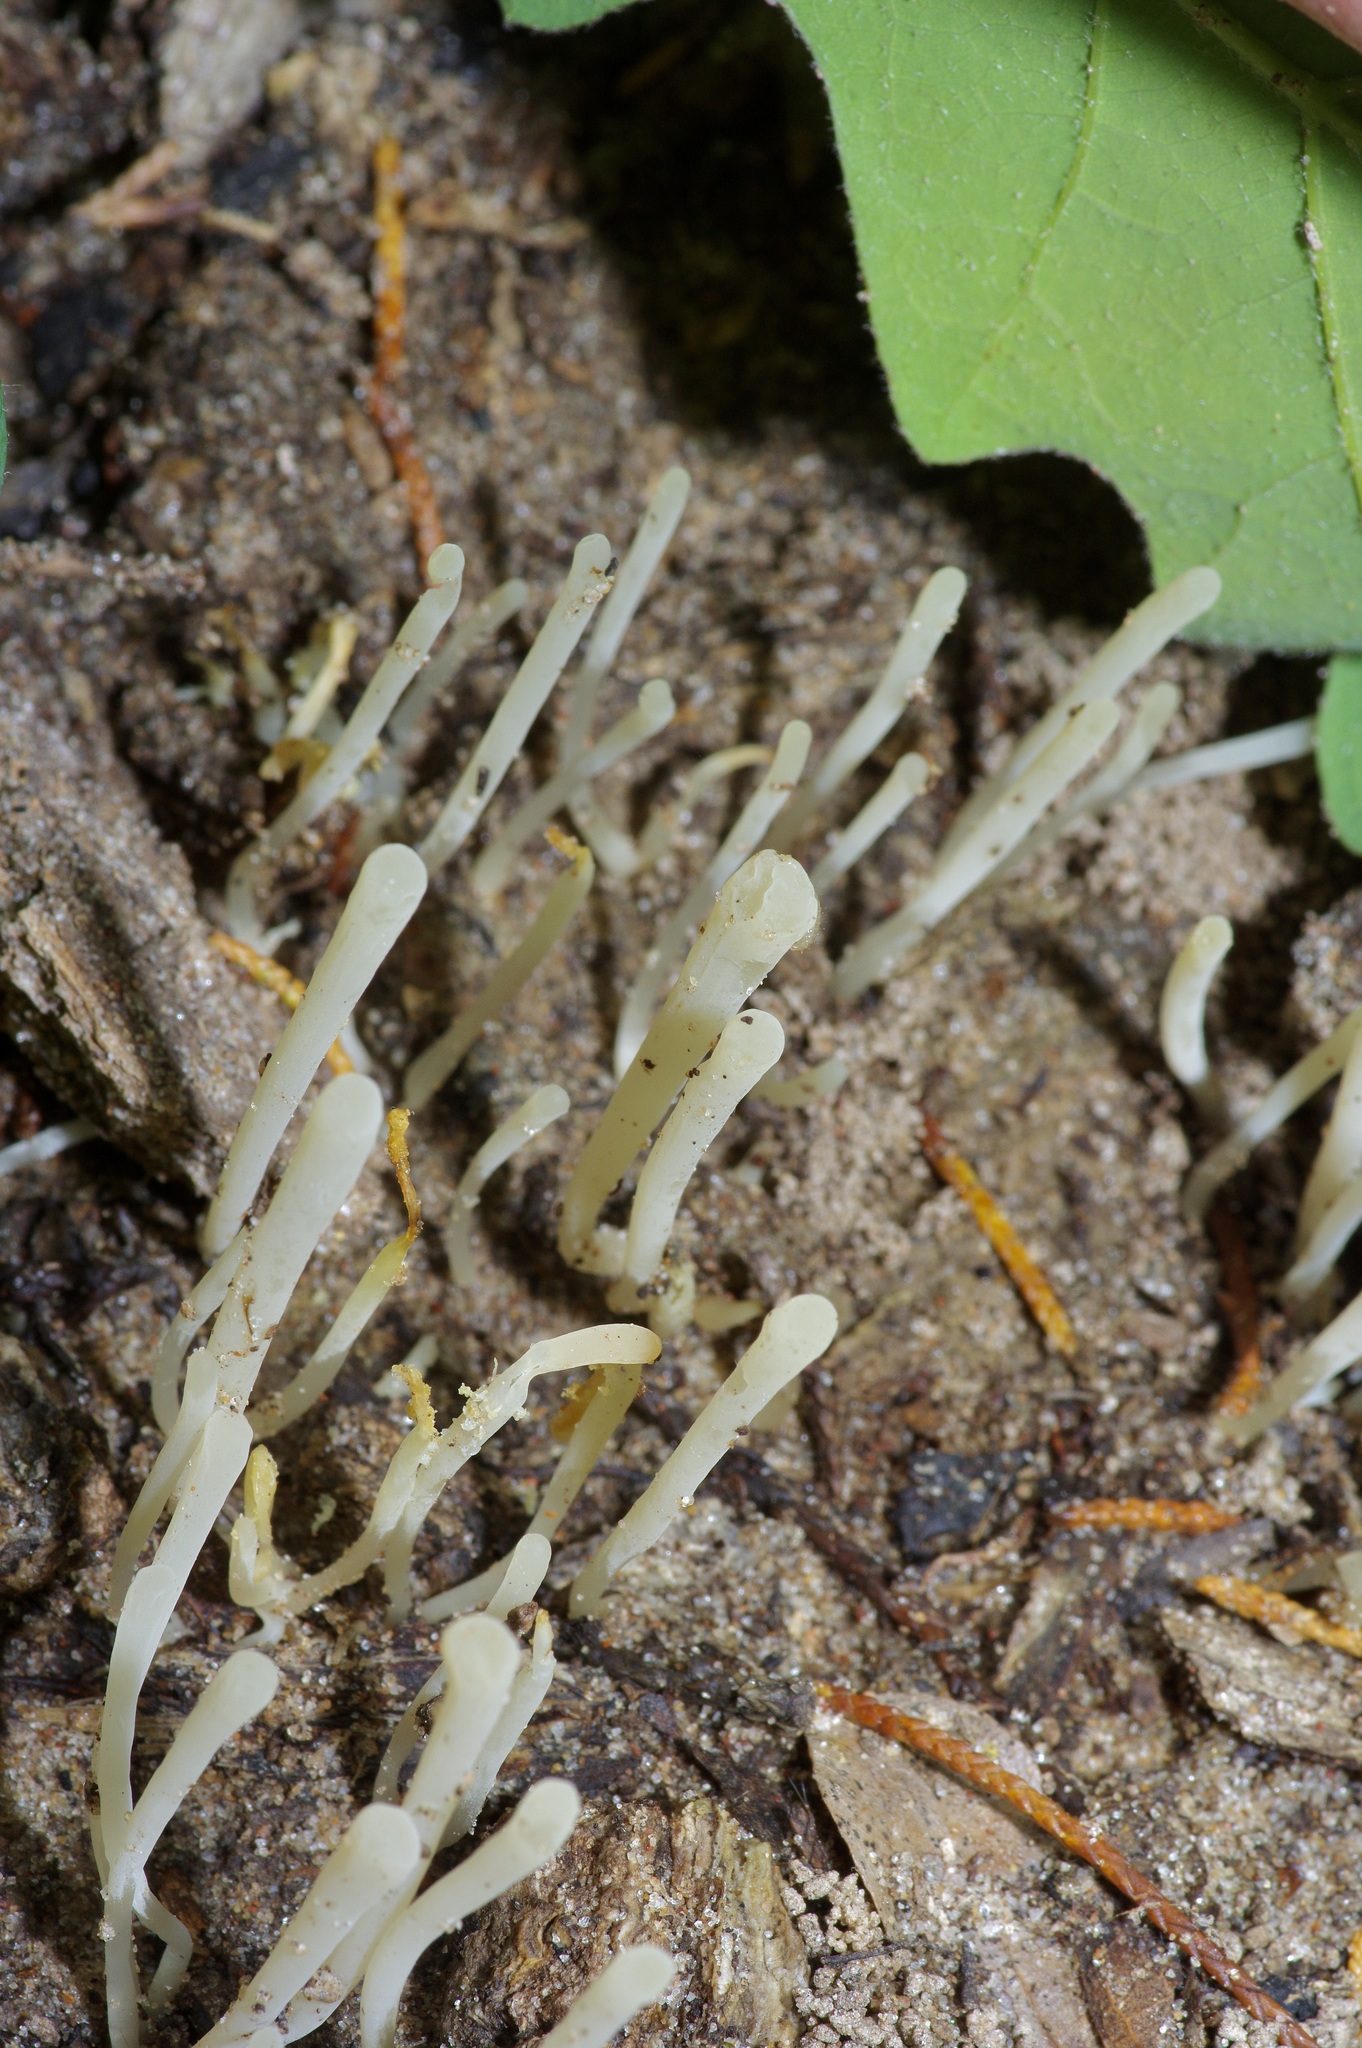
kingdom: Fungi
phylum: Basidiomycota
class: Agaricomycetes
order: Agaricales
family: Clavariaceae
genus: Clavaria
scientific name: Clavaria falcata
